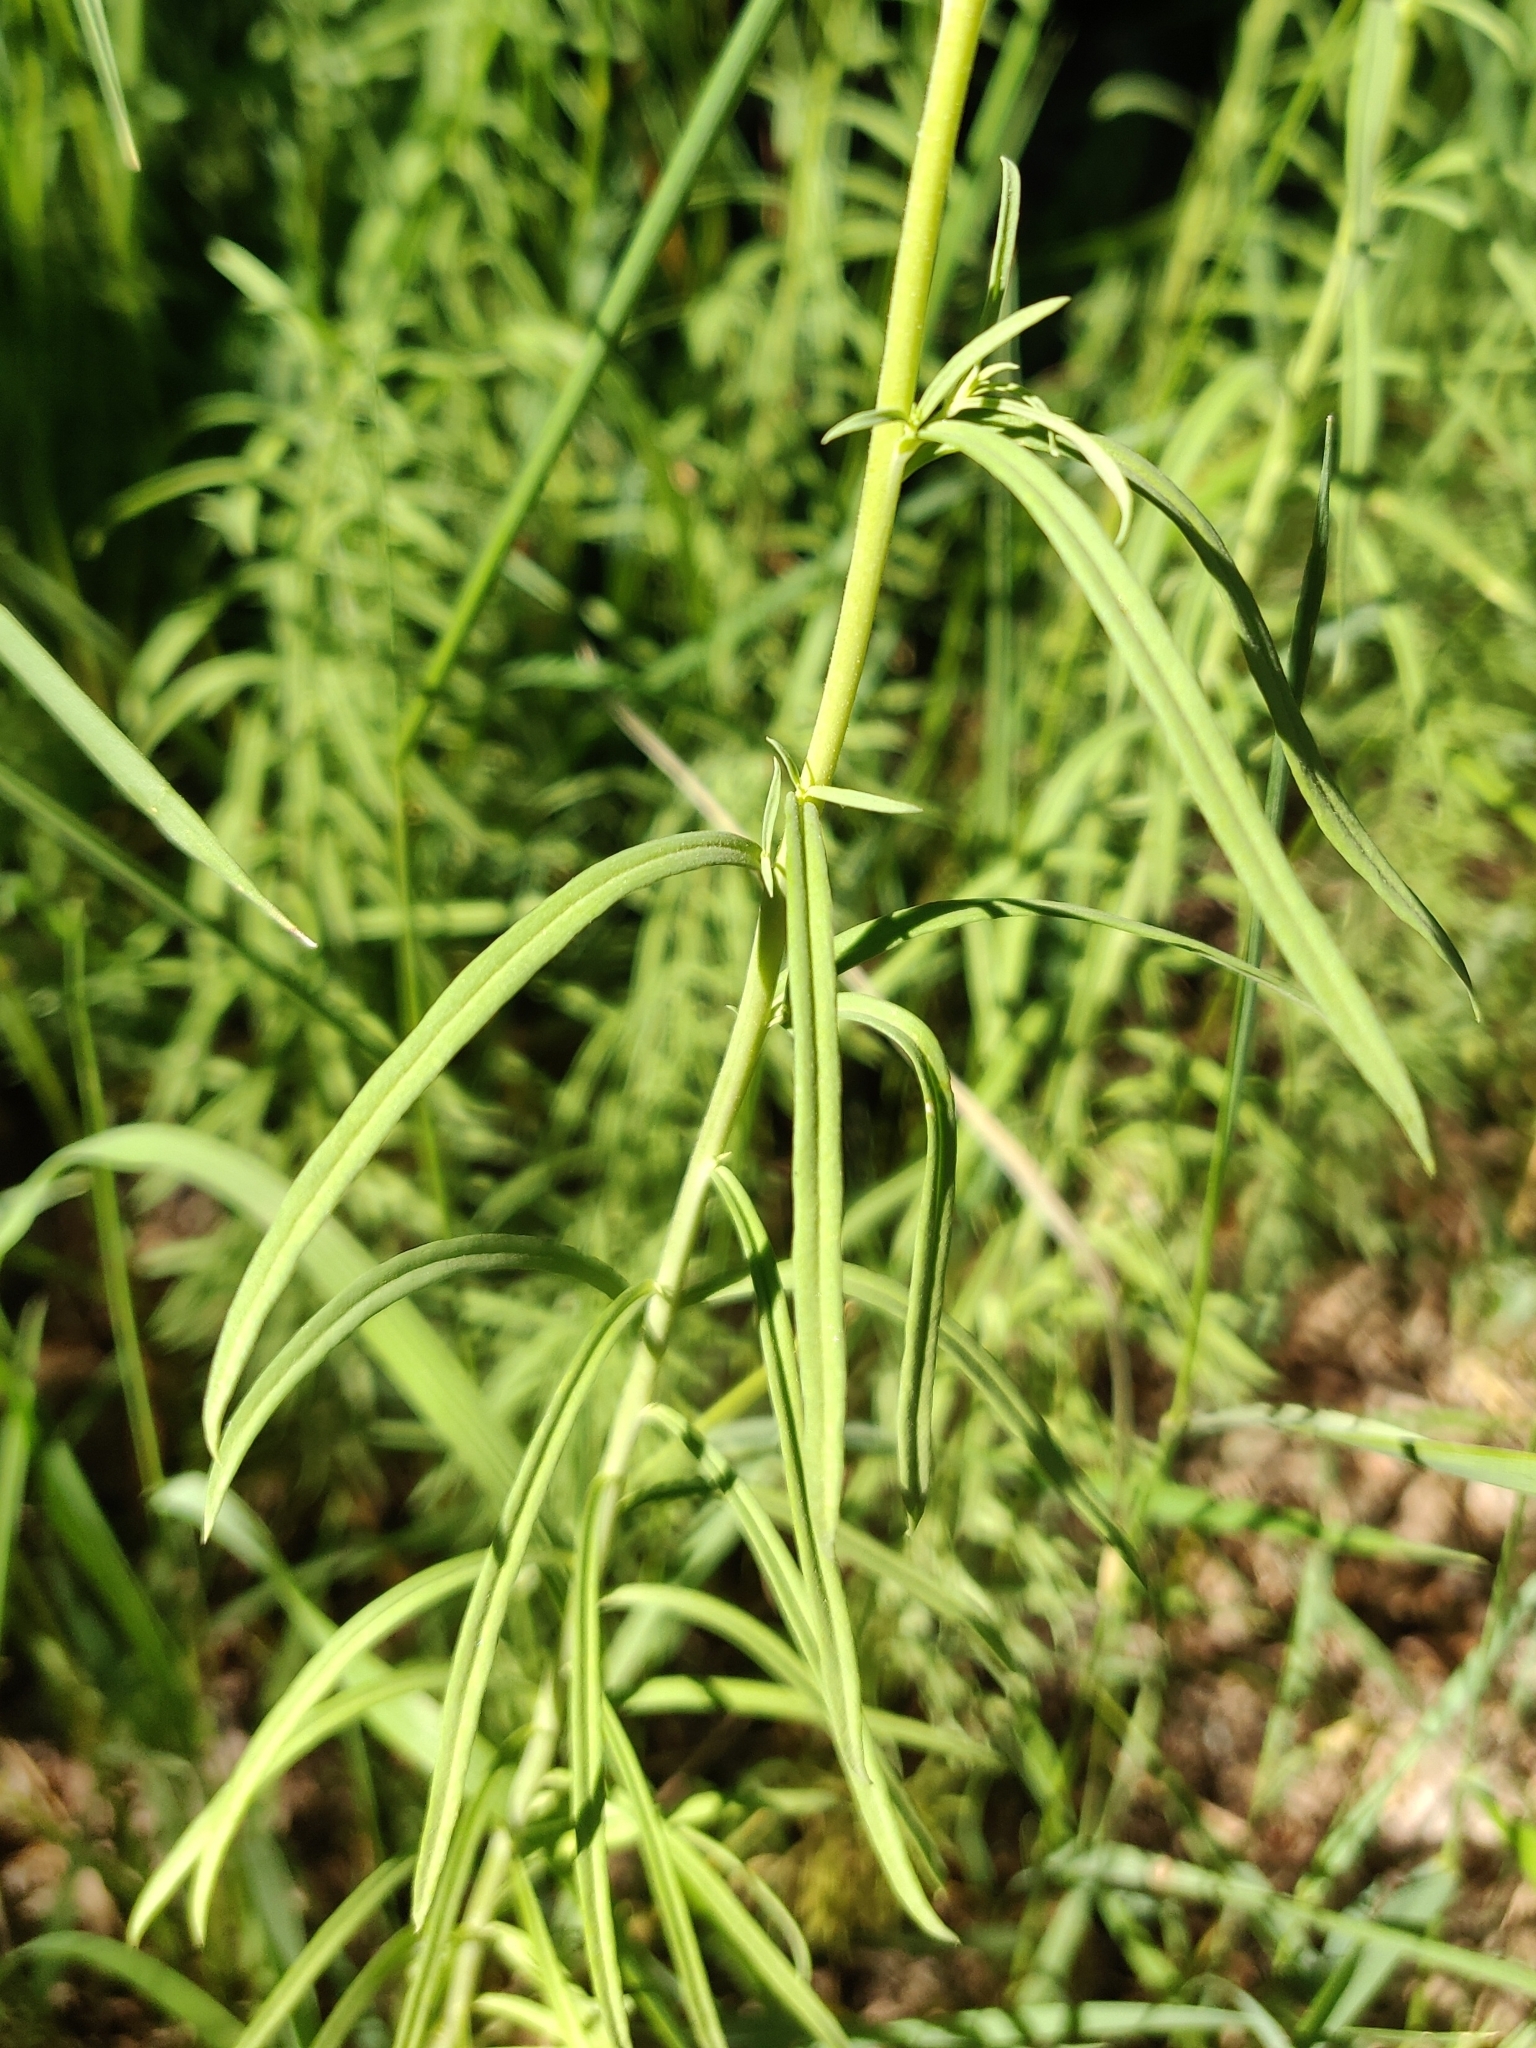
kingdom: Plantae
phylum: Tracheophyta
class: Magnoliopsida
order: Lamiales
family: Plantaginaceae
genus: Linaria
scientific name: Linaria vulgaris
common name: Butter and eggs
